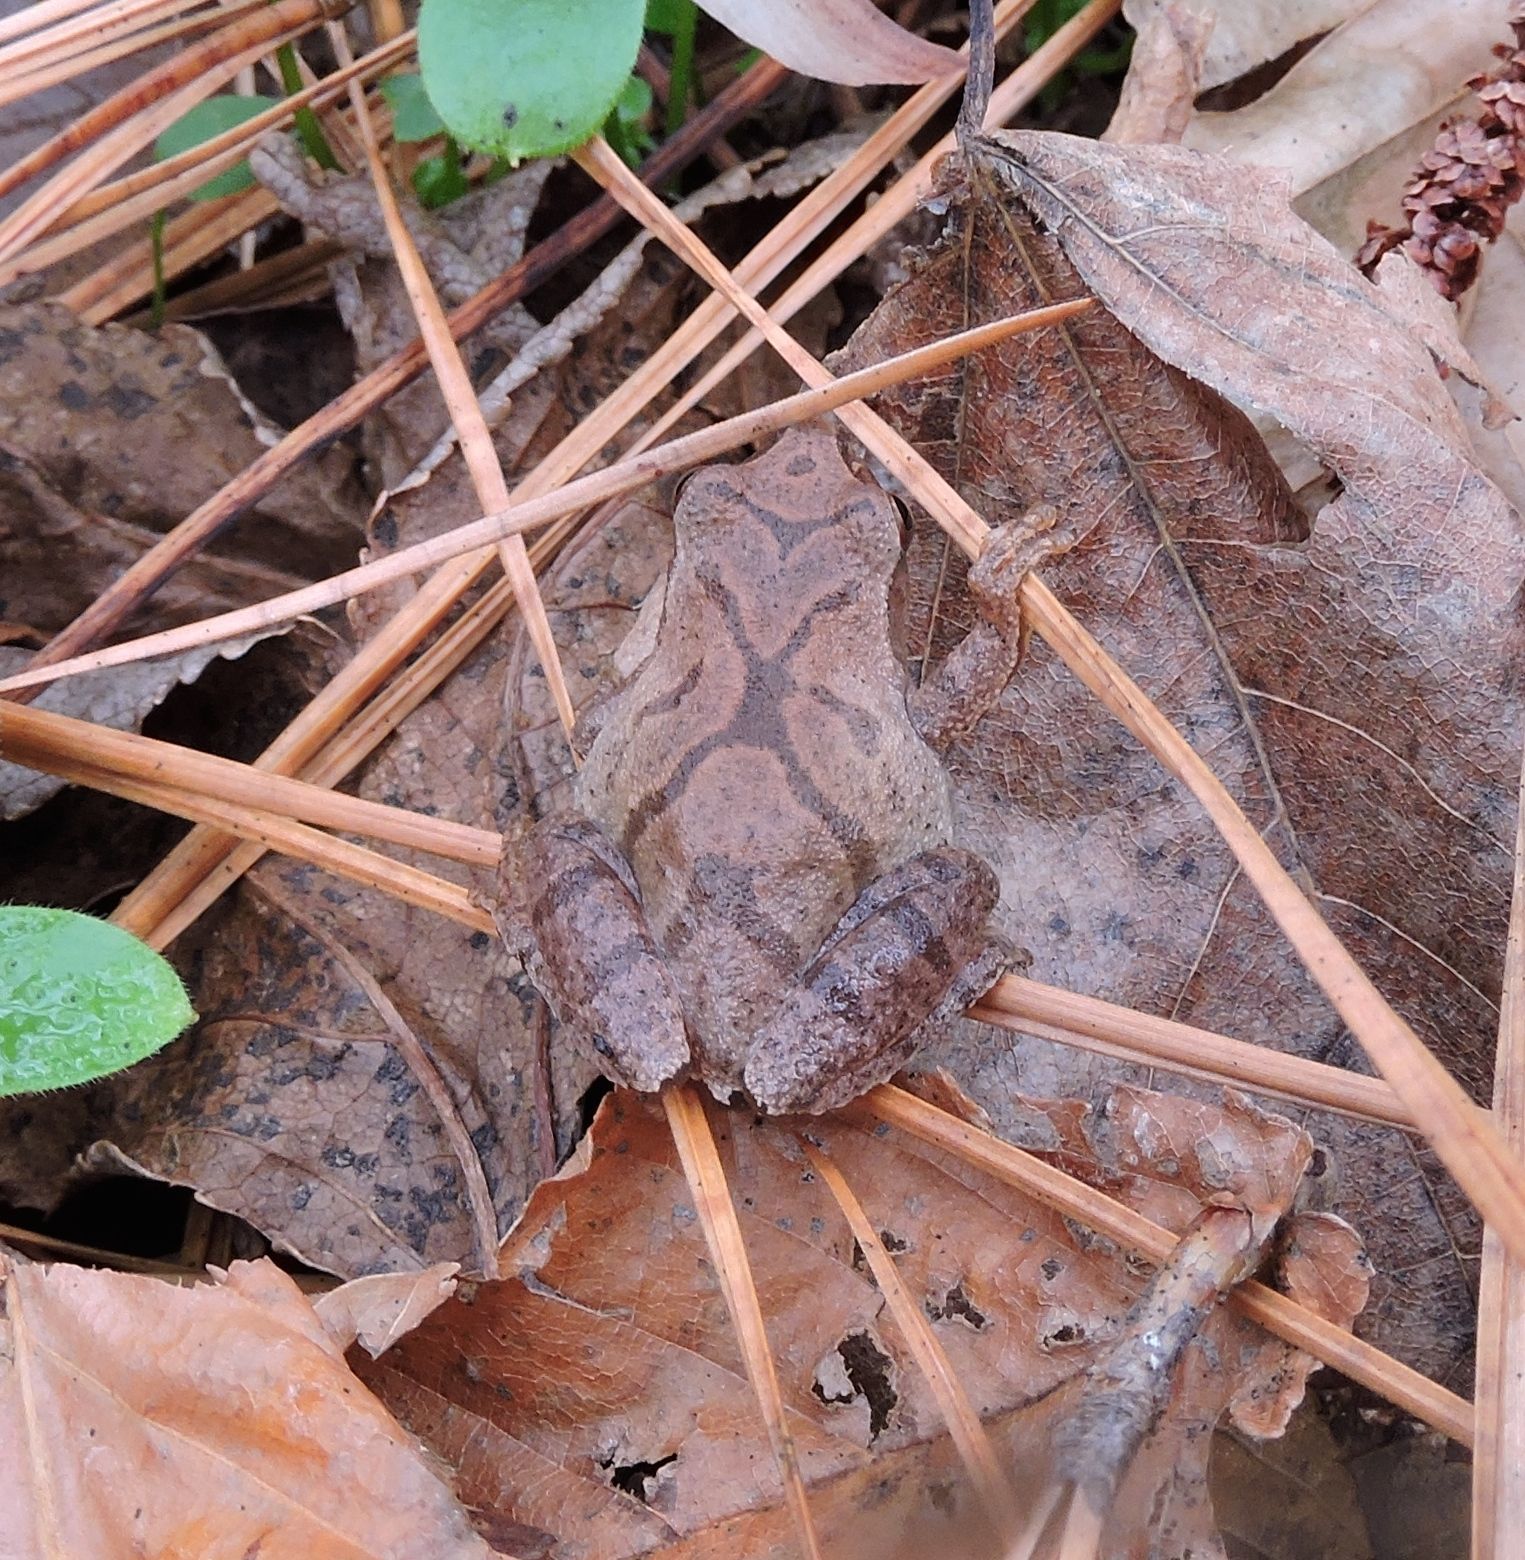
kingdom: Animalia
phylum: Chordata
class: Amphibia
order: Anura
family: Hylidae
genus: Pseudacris
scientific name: Pseudacris crucifer
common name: Spring peeper
